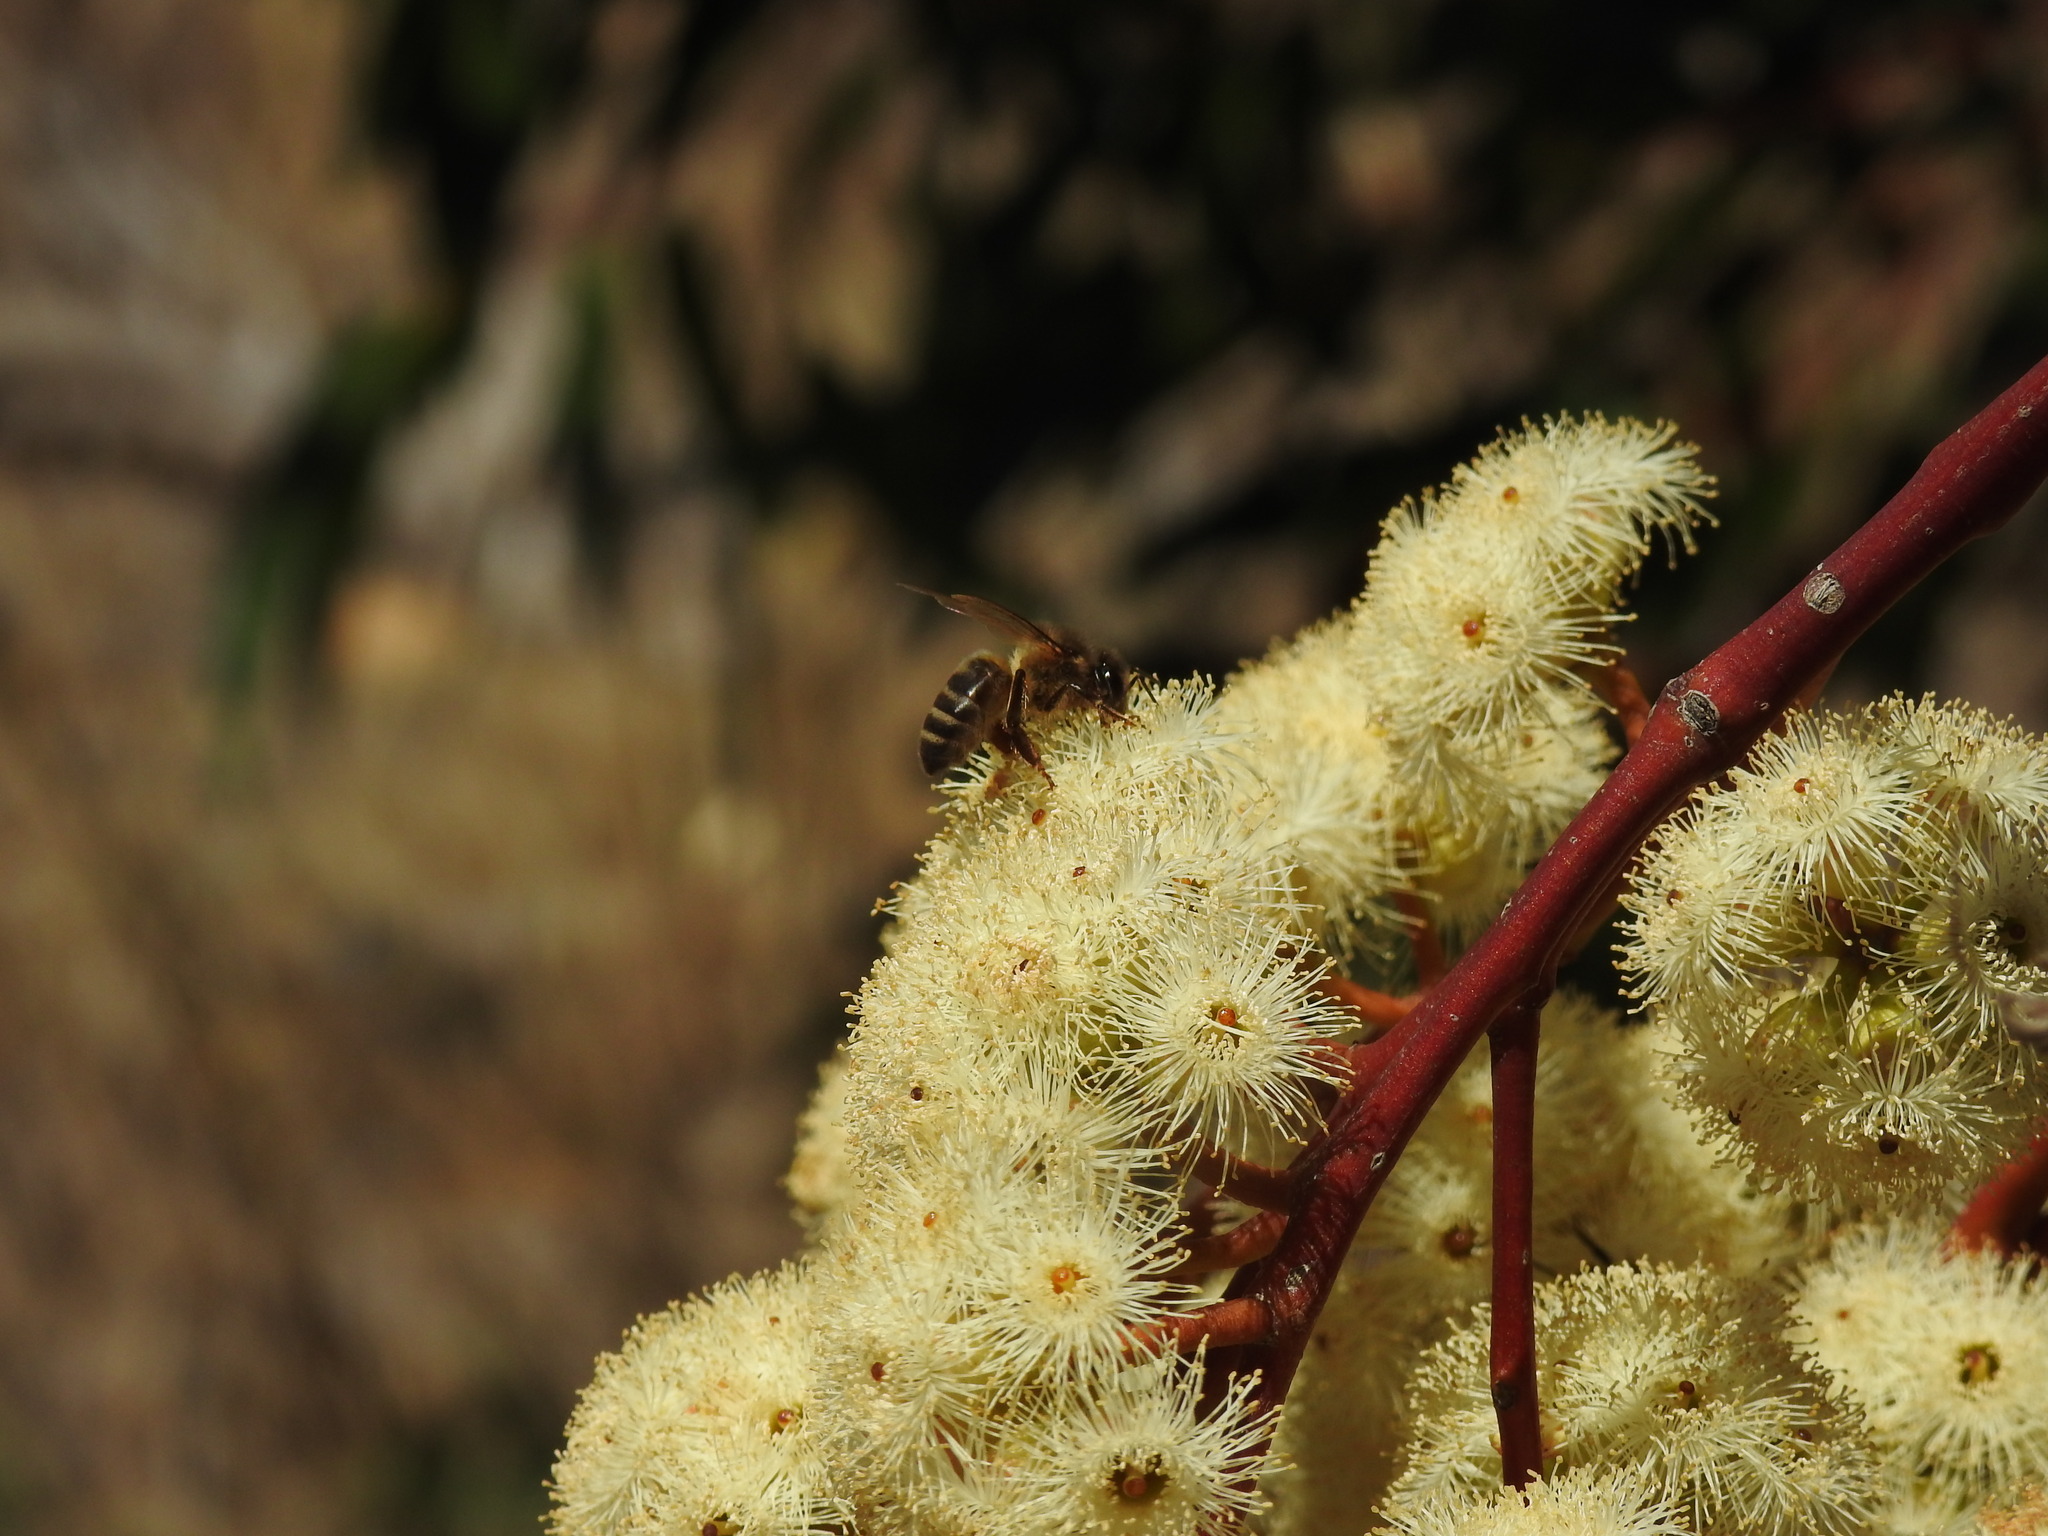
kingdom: Animalia
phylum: Arthropoda
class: Insecta
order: Hymenoptera
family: Apidae
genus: Apis
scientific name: Apis mellifera
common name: Honey bee
